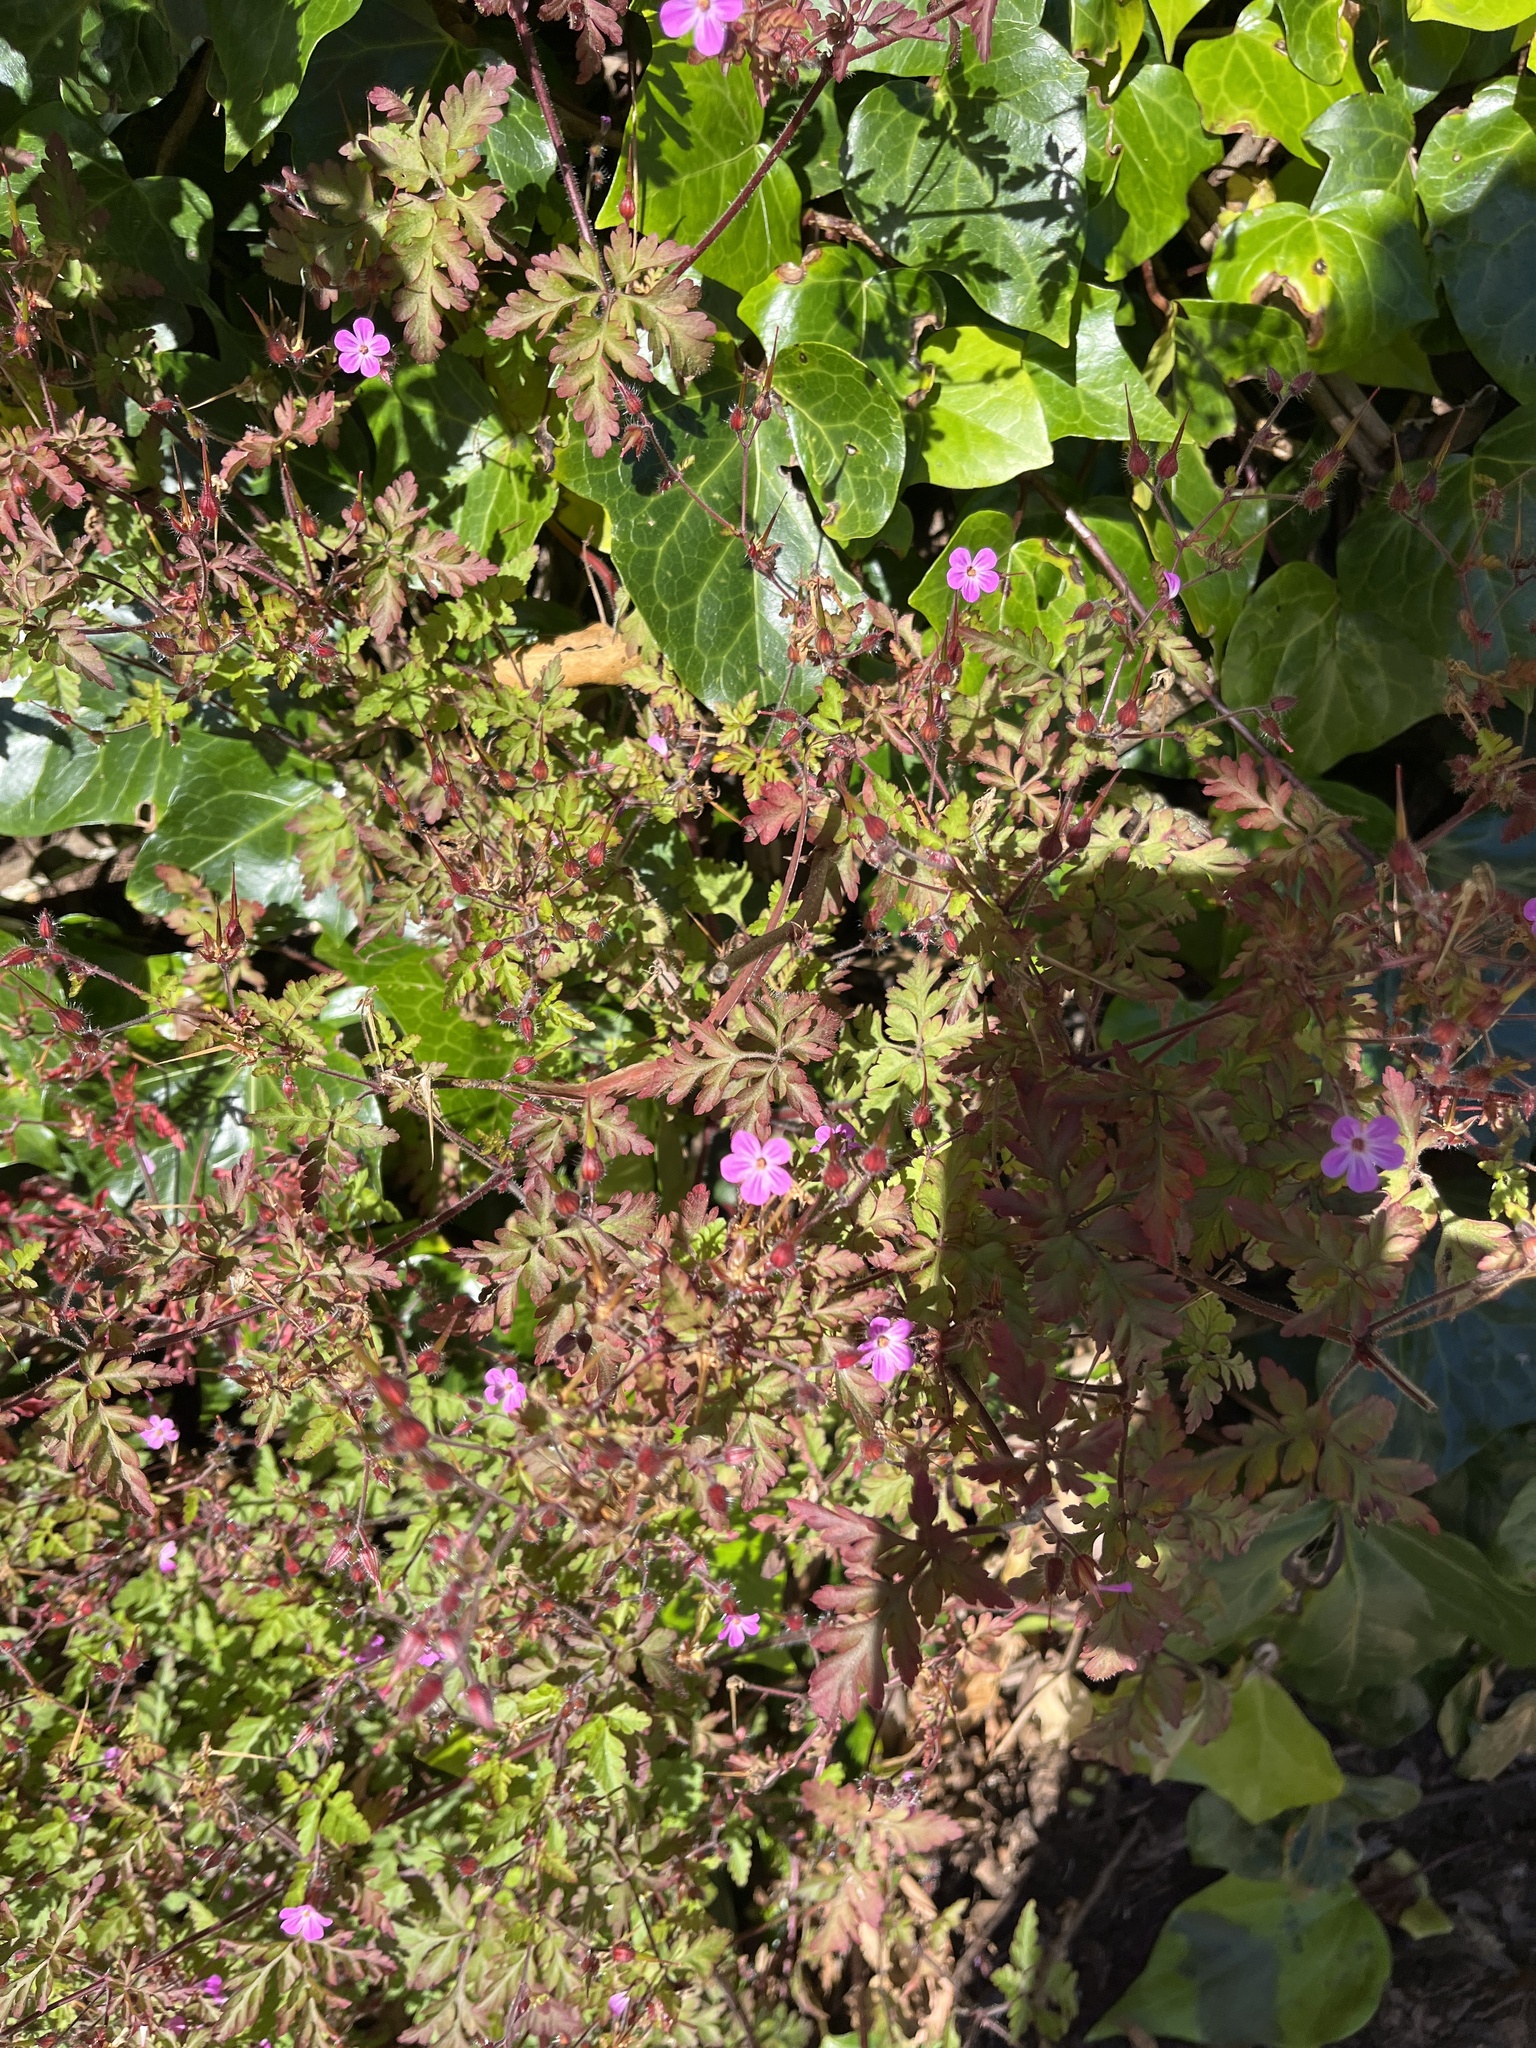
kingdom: Plantae
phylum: Tracheophyta
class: Magnoliopsida
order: Geraniales
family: Geraniaceae
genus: Geranium
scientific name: Geranium robertianum
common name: Herb-robert
